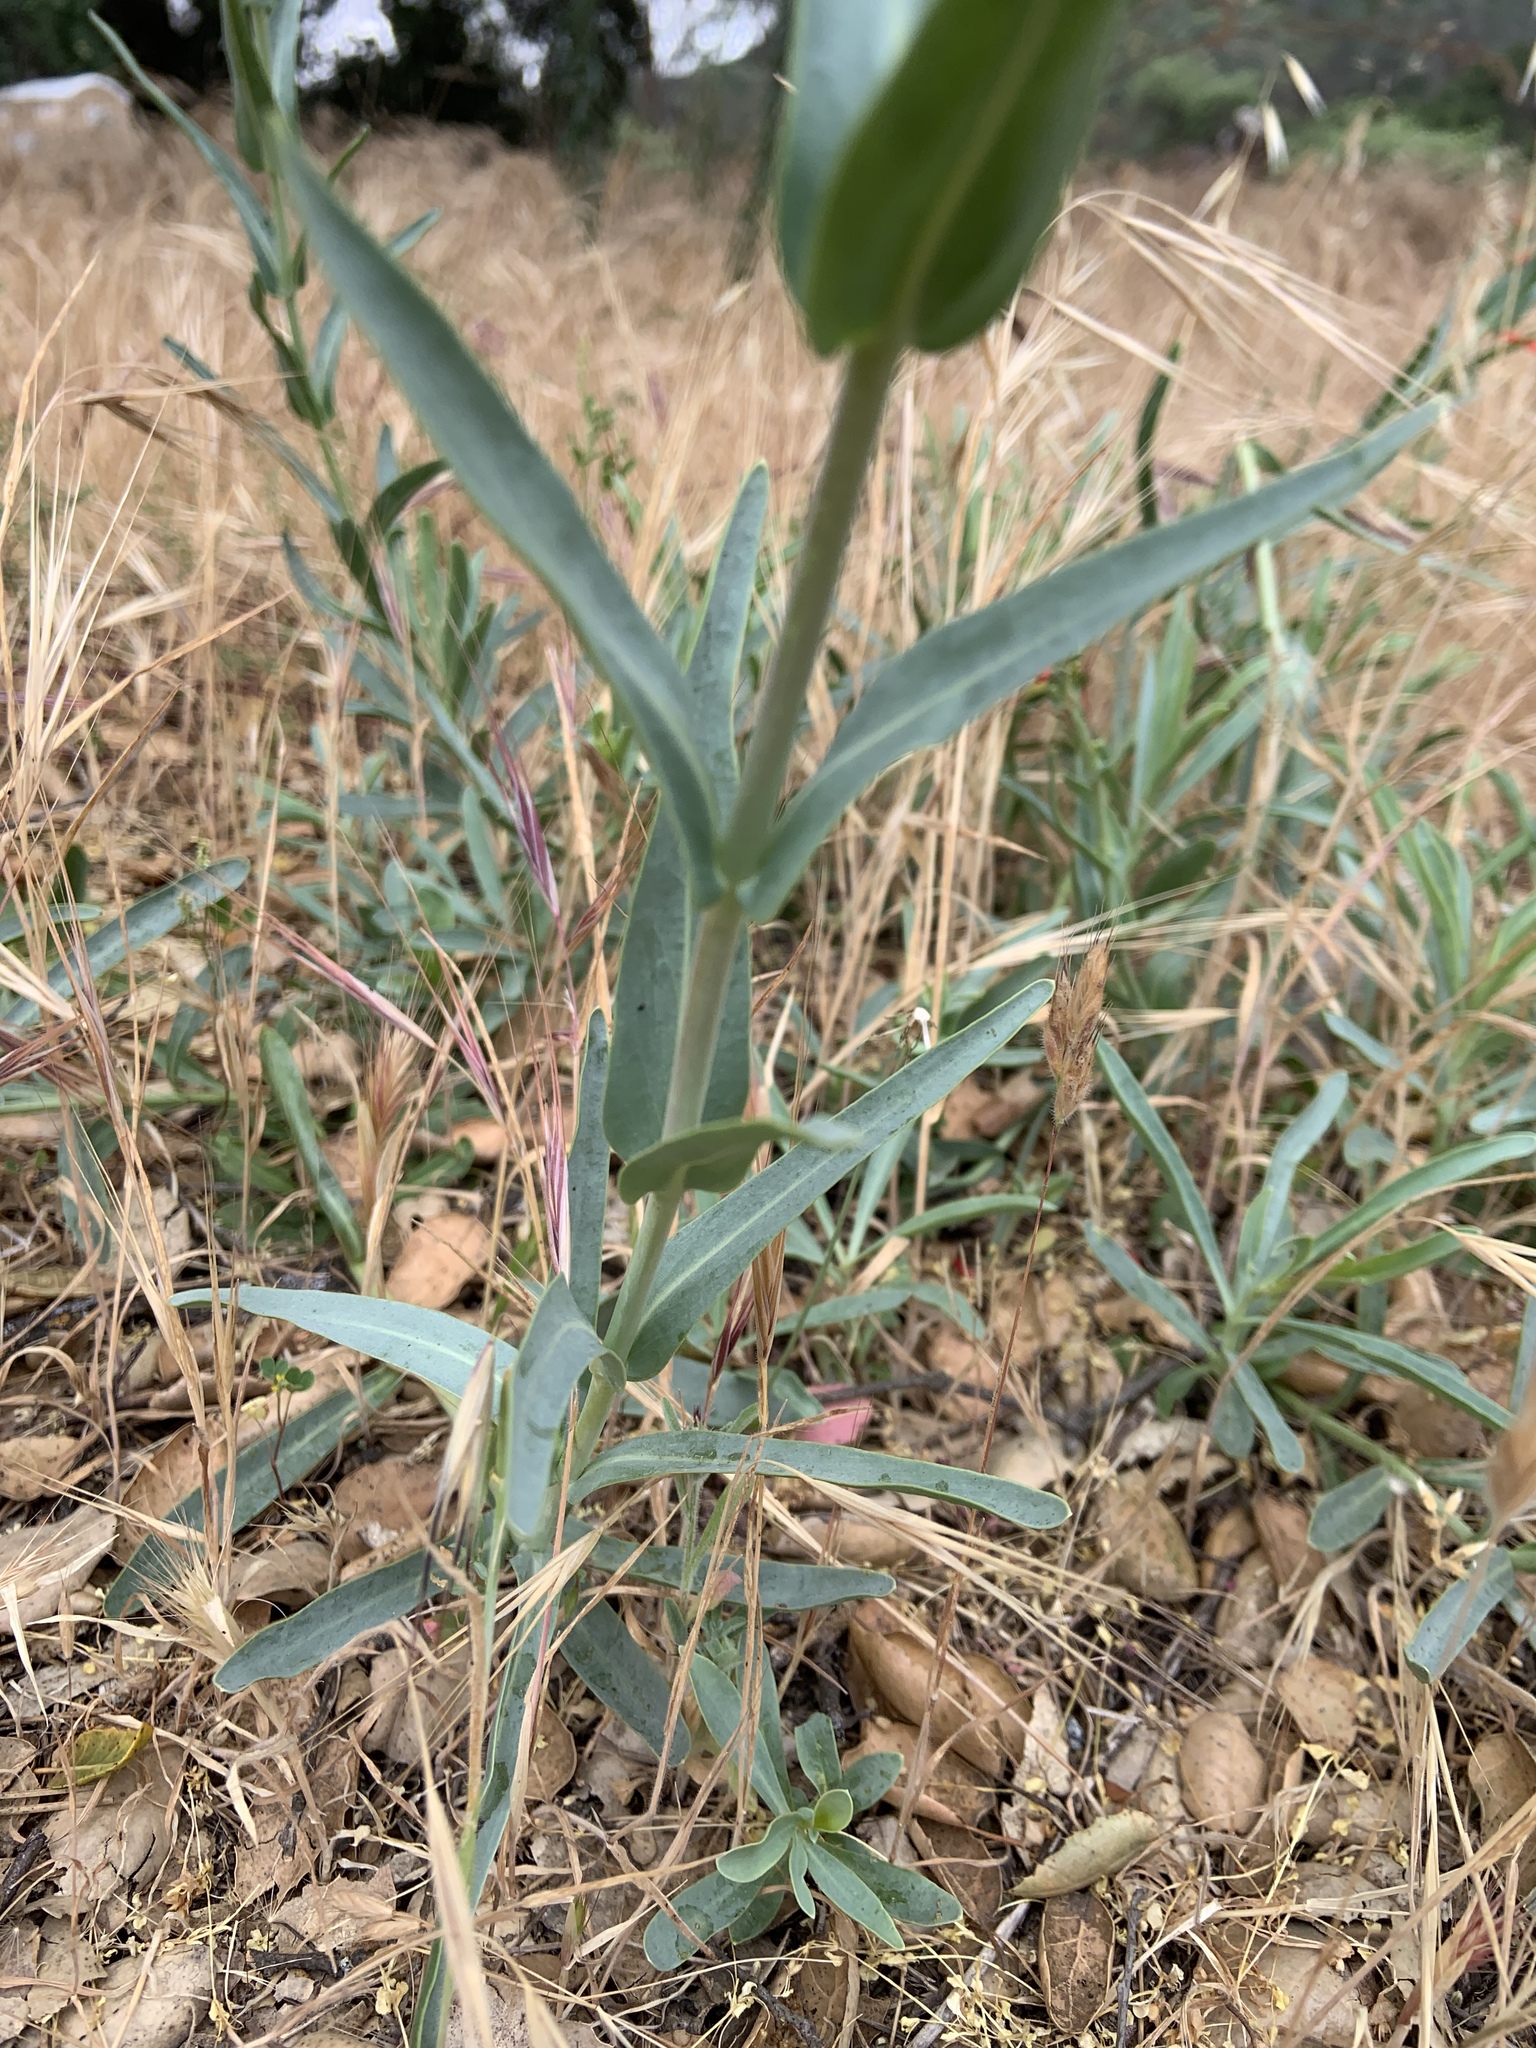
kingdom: Plantae
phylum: Tracheophyta
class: Magnoliopsida
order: Lamiales
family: Plantaginaceae
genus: Penstemon
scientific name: Penstemon centranthifolius
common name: Scarlet bugler
